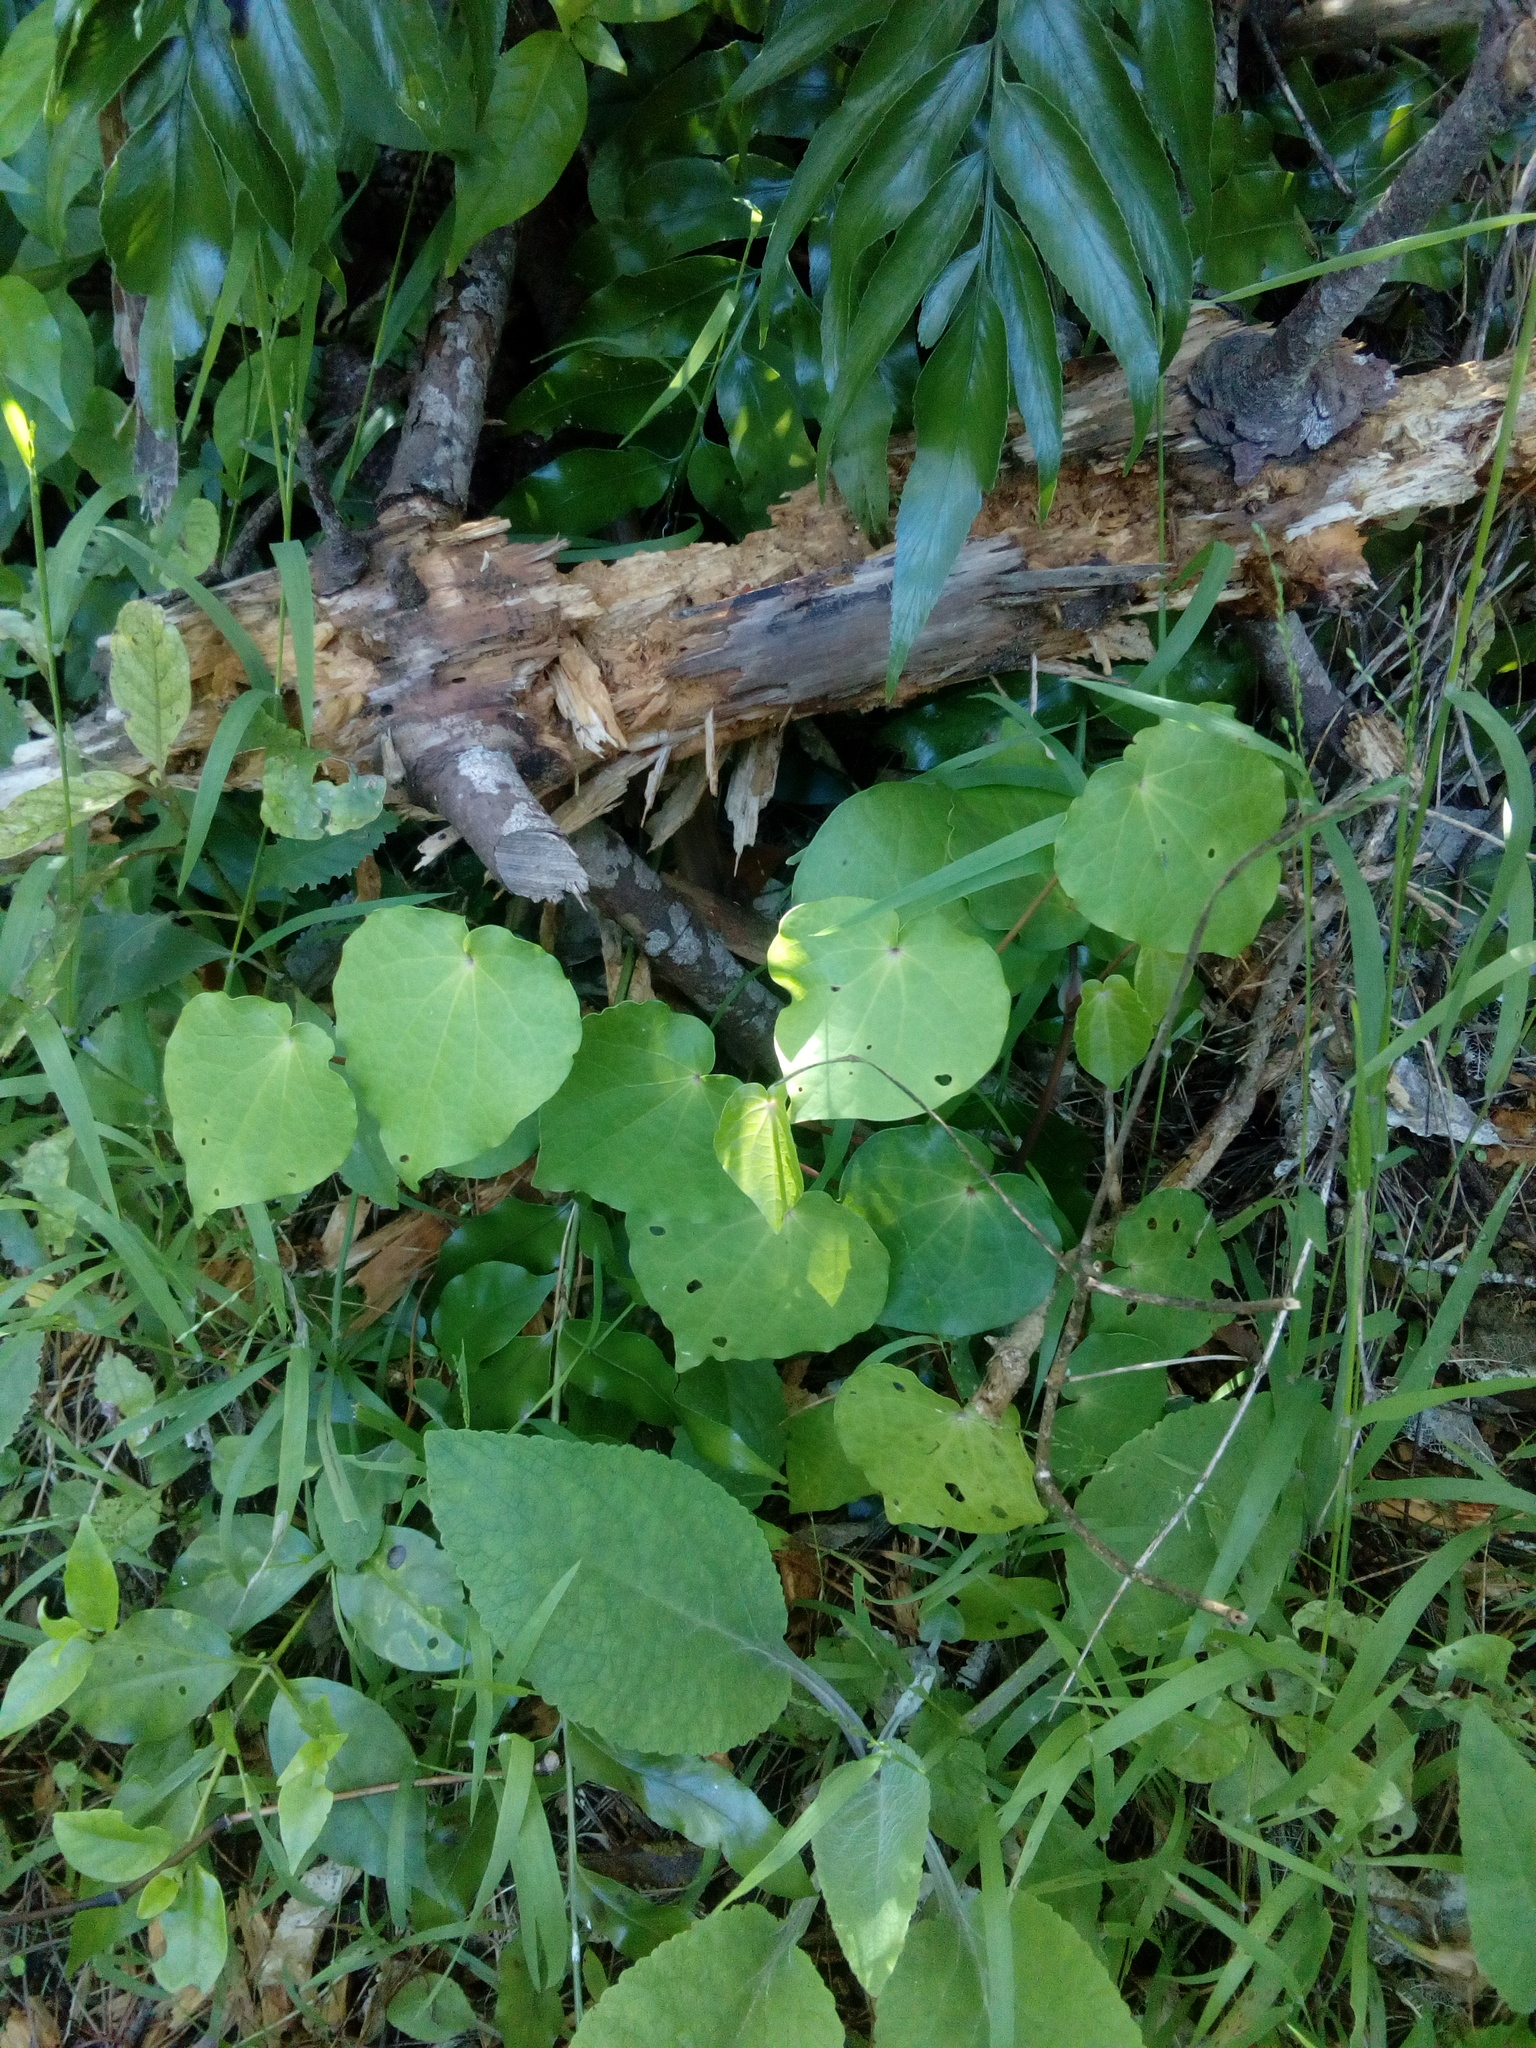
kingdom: Plantae
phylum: Tracheophyta
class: Magnoliopsida
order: Piperales
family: Piperaceae
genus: Macropiper
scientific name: Macropiper excelsum
